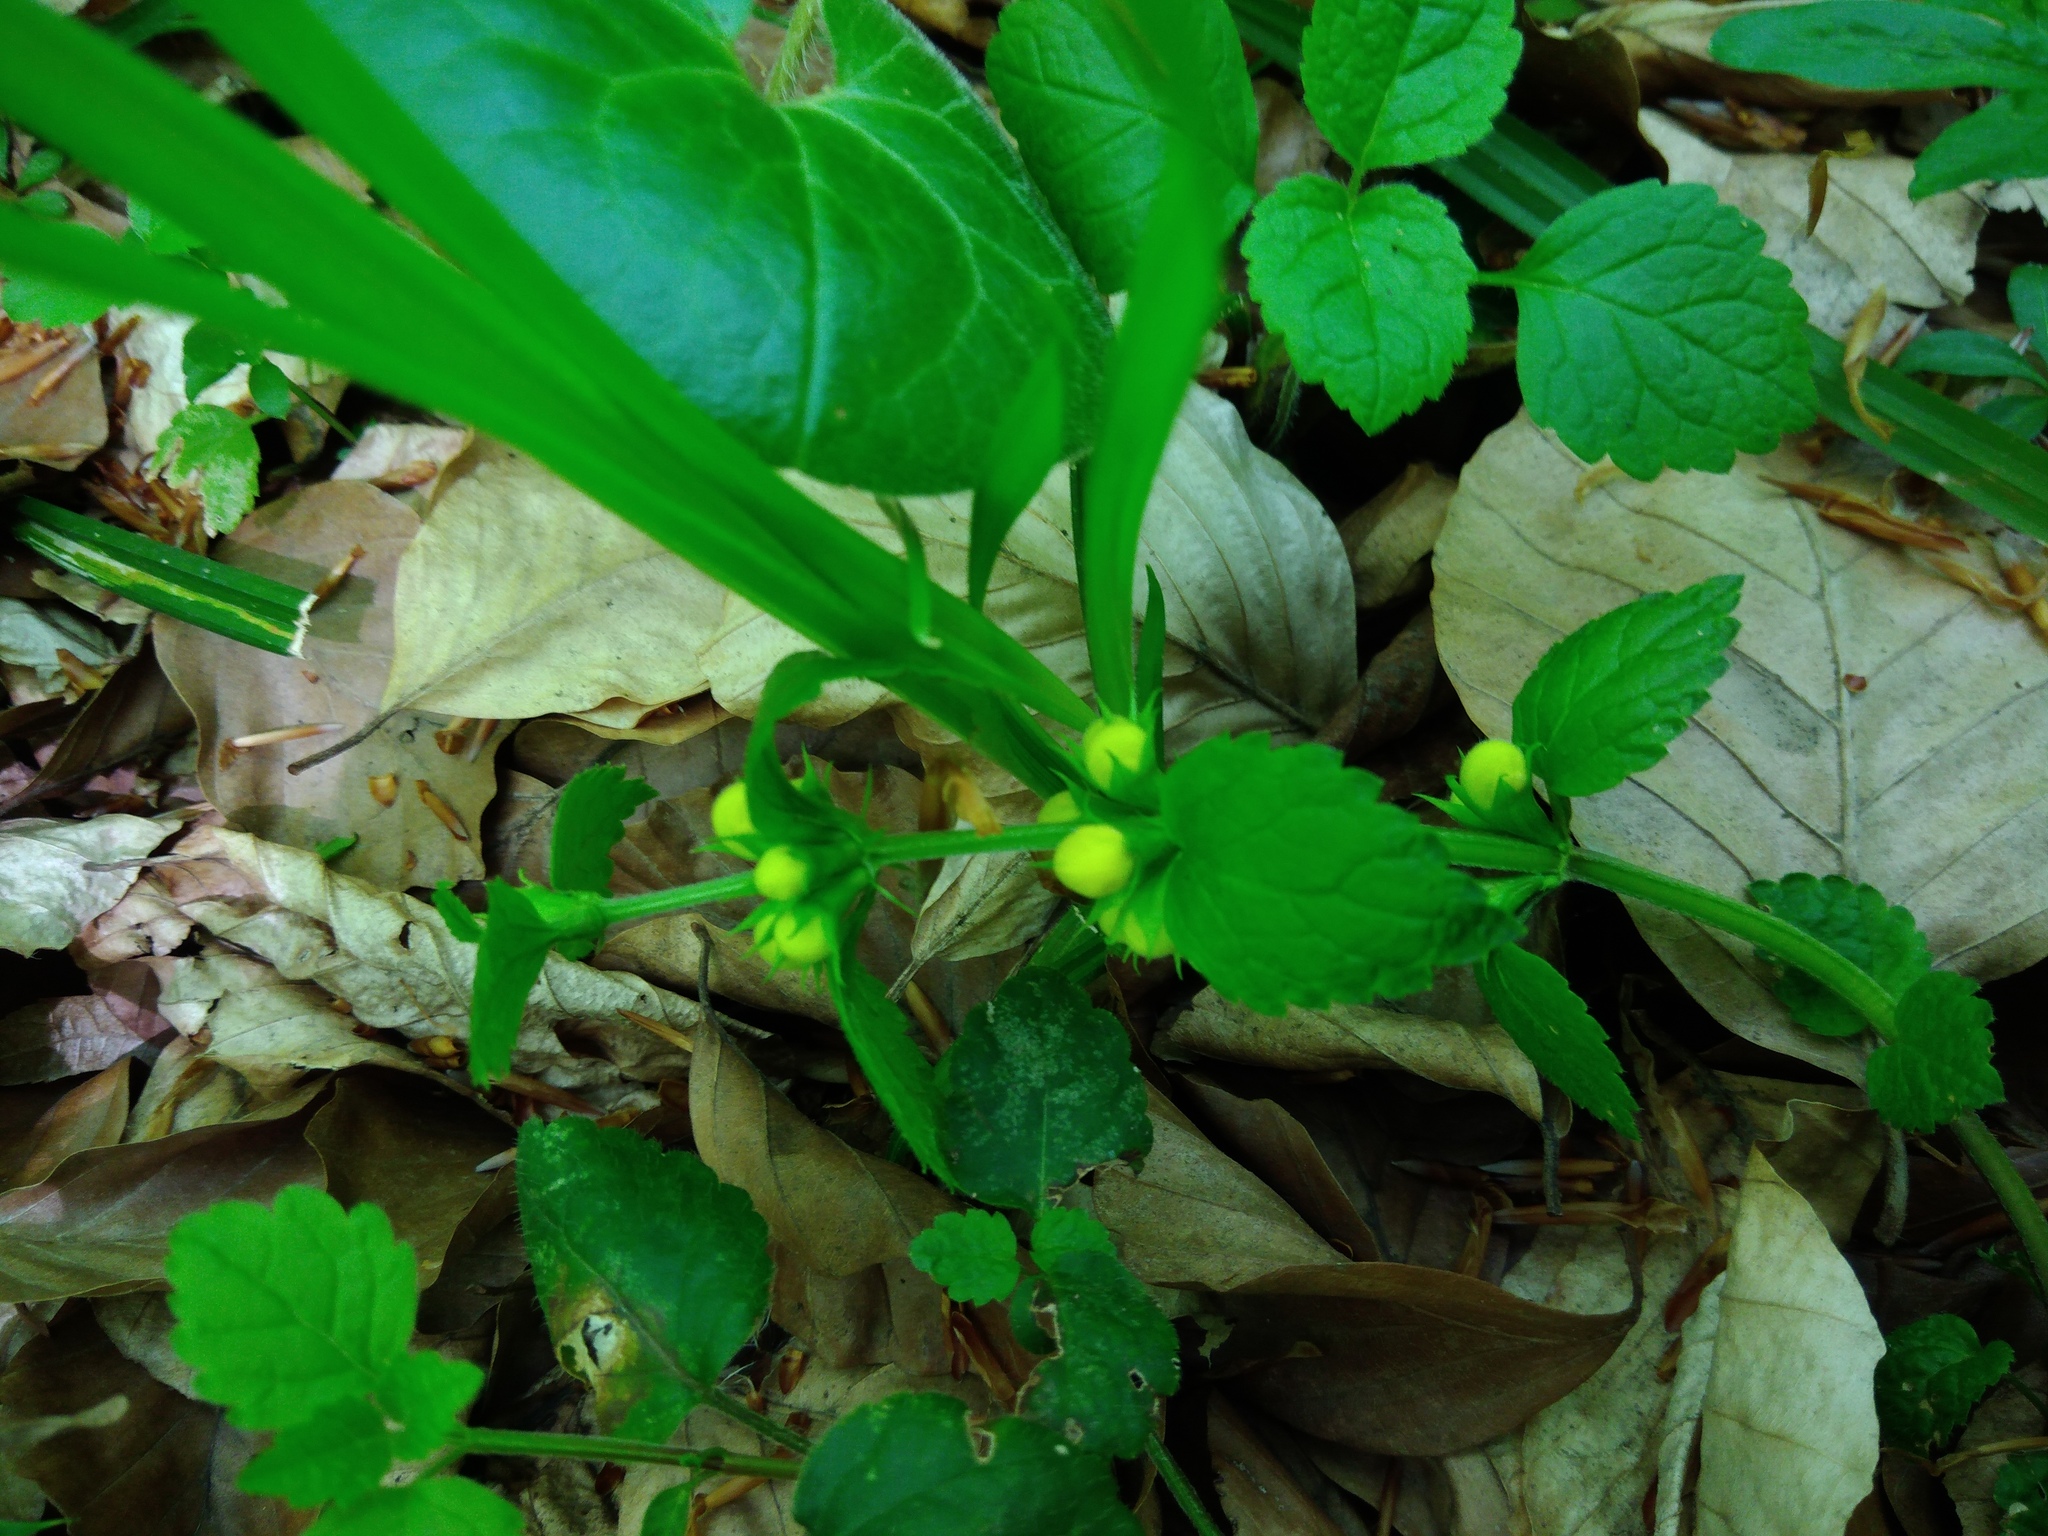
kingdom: Plantae
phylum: Tracheophyta
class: Magnoliopsida
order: Lamiales
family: Lamiaceae
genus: Lamium
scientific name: Lamium galeobdolon
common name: Yellow archangel
